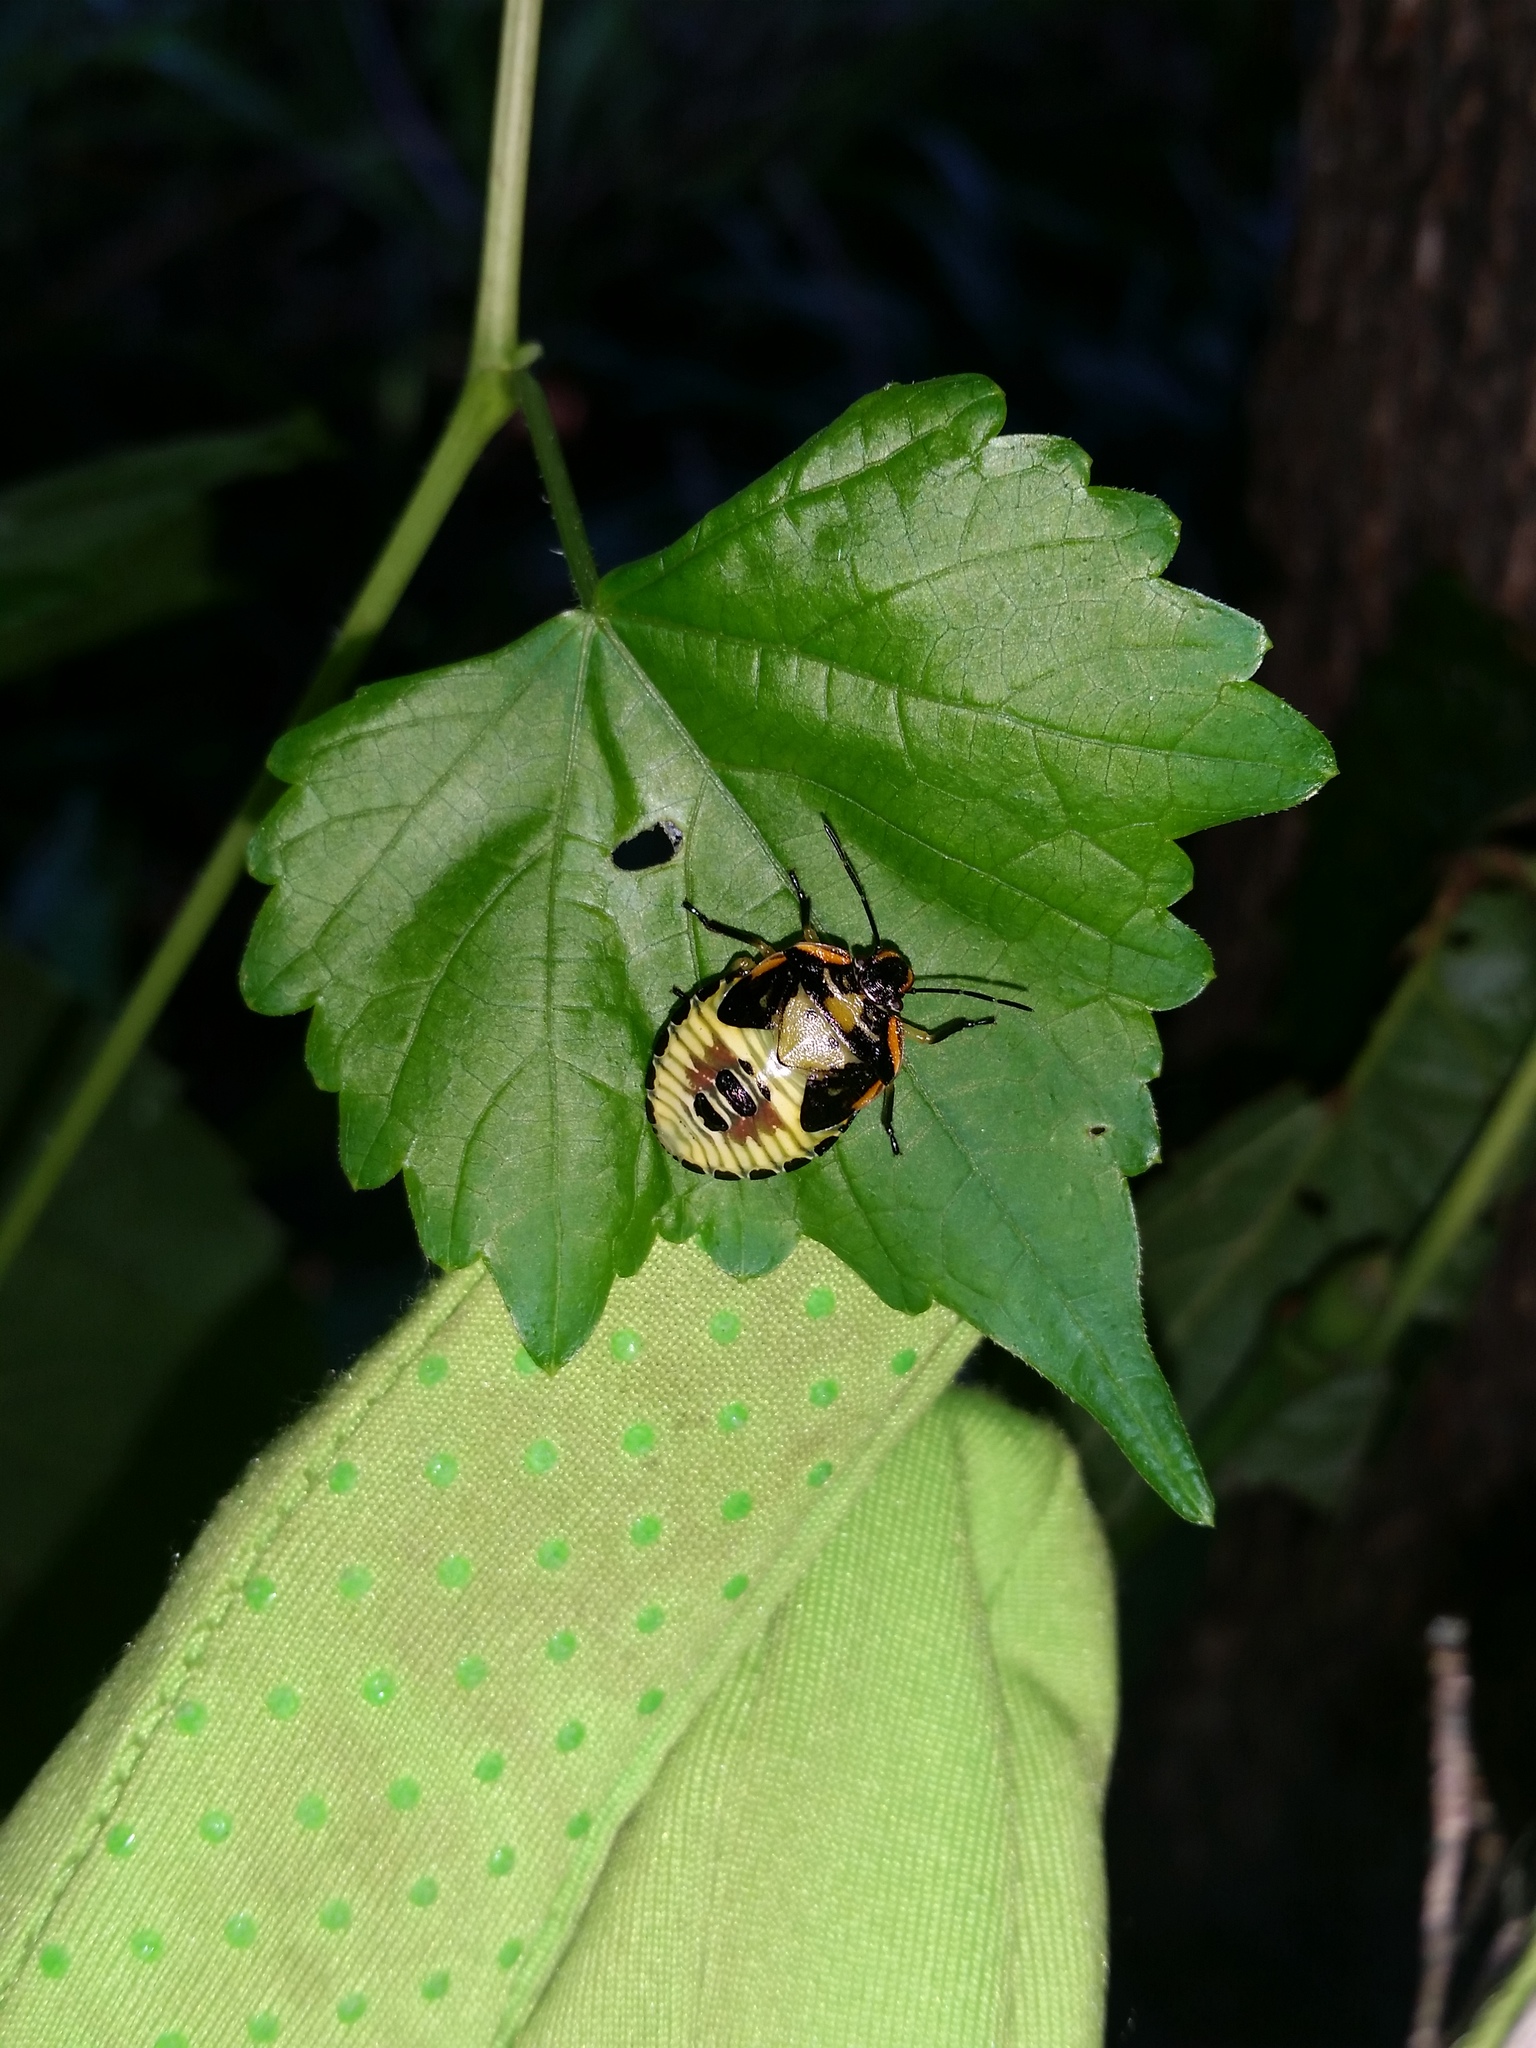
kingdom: Animalia
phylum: Arthropoda
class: Insecta
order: Hemiptera
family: Pentatomidae
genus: Chinavia
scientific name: Chinavia hilaris
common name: Green stink bug
